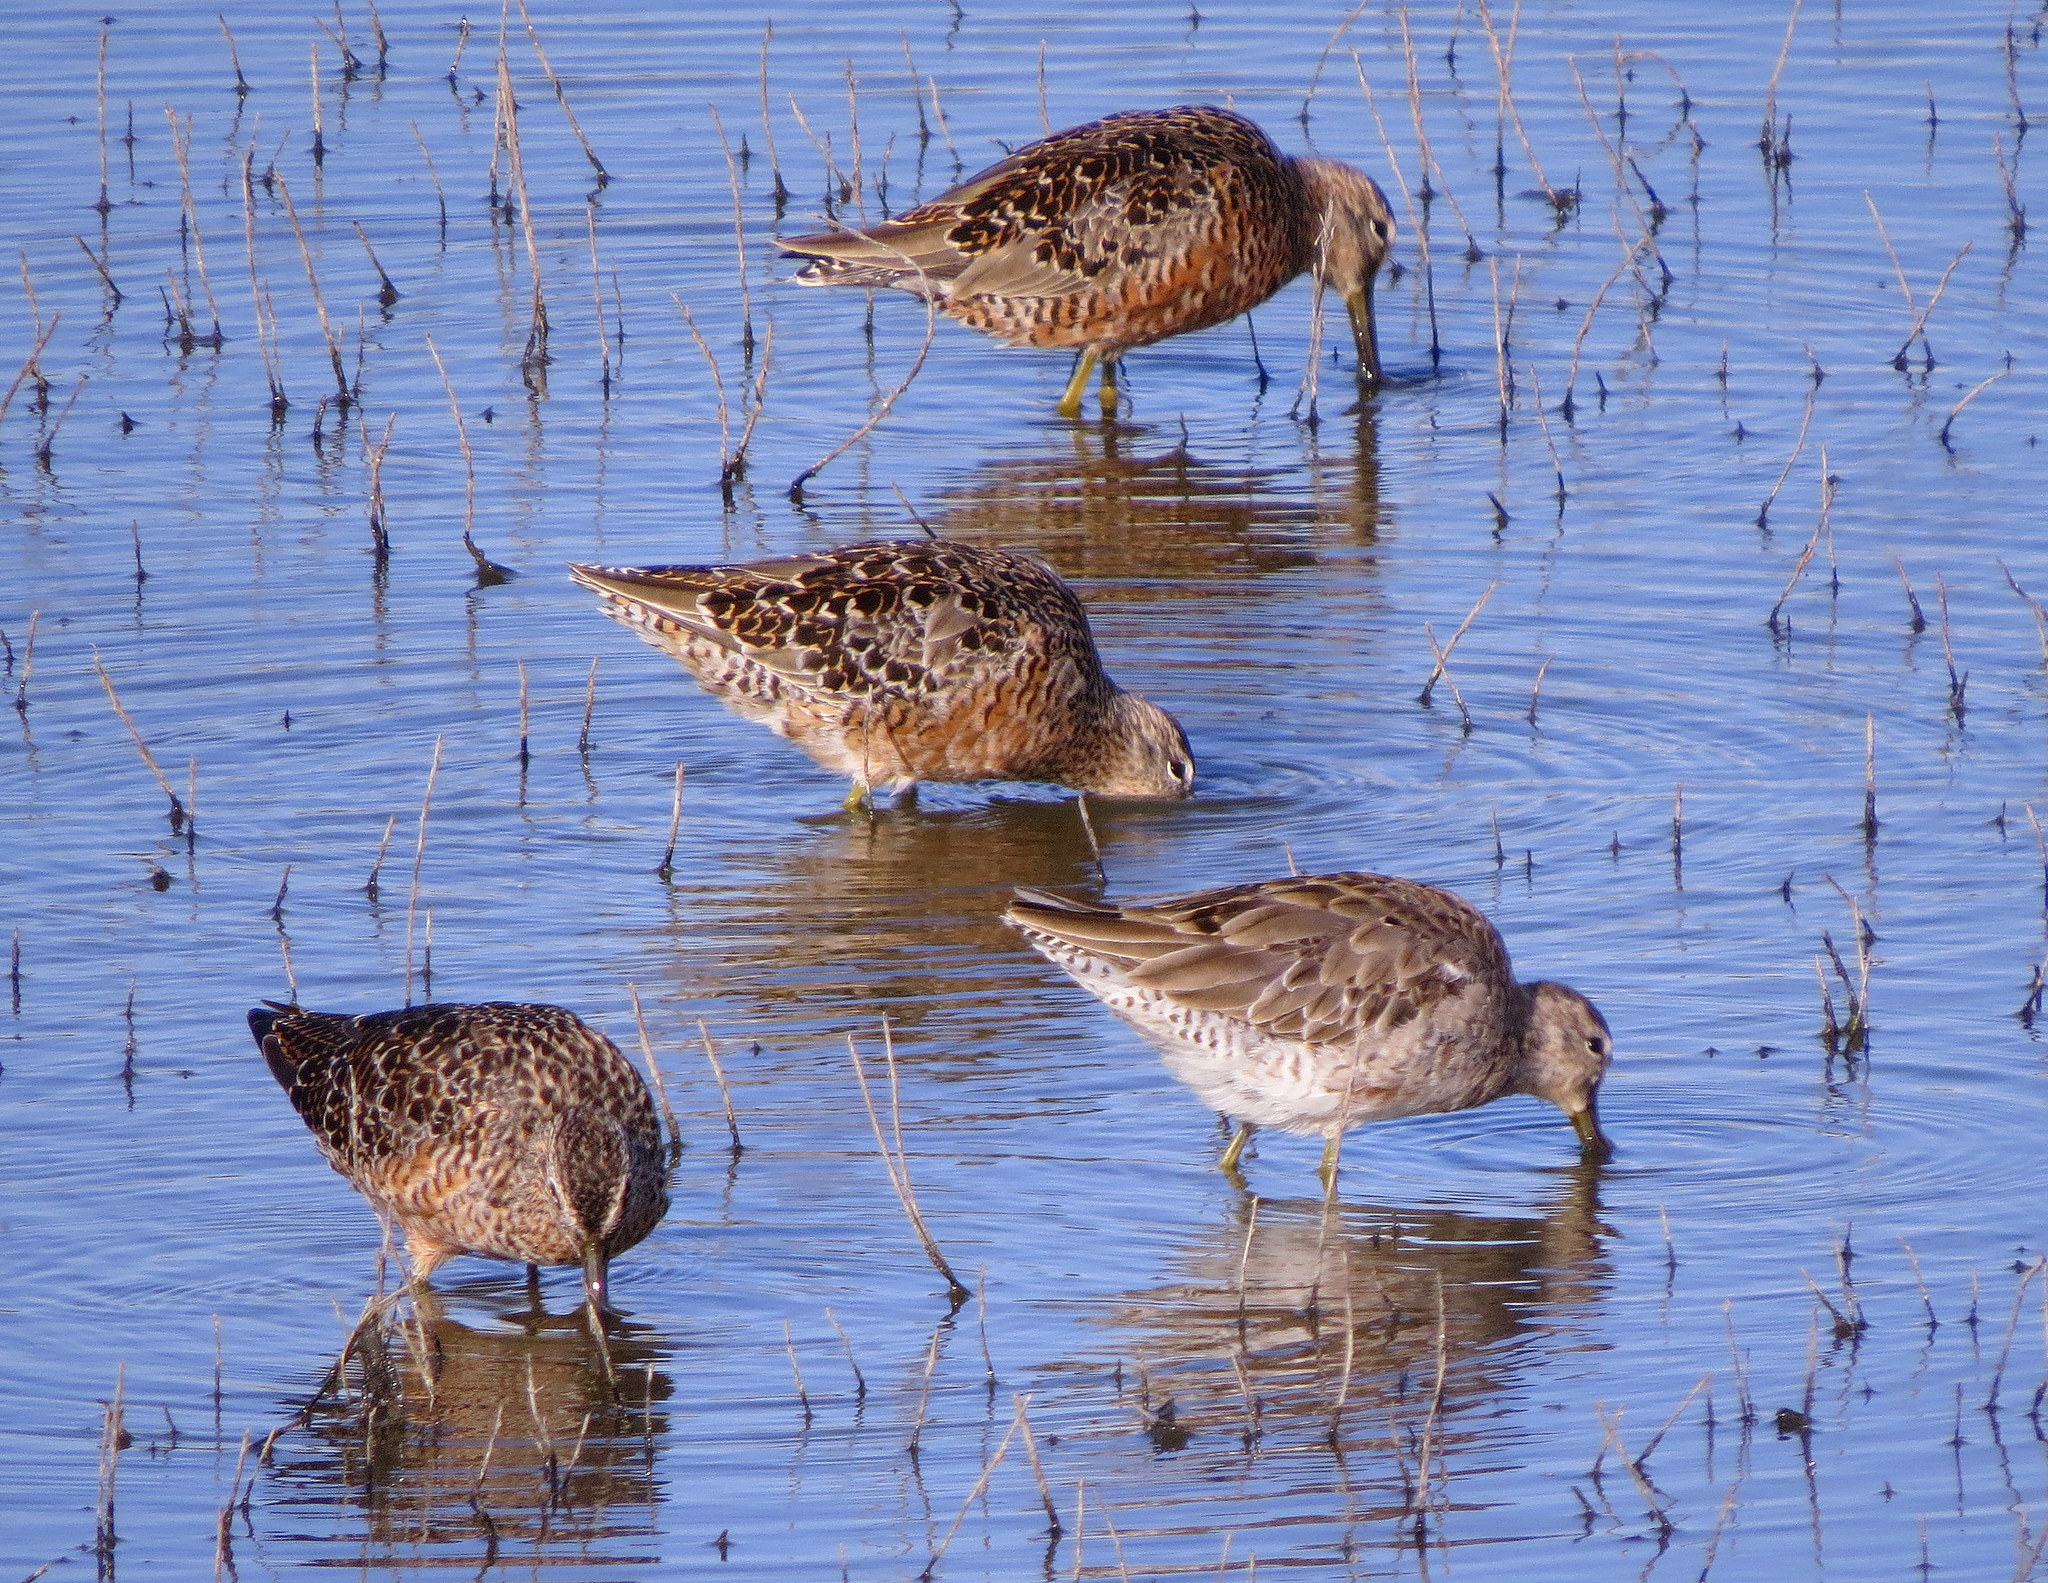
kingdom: Animalia
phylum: Chordata
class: Aves
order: Charadriiformes
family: Scolopacidae
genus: Limnodromus
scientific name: Limnodromus scolopaceus
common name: Long-billed dowitcher
